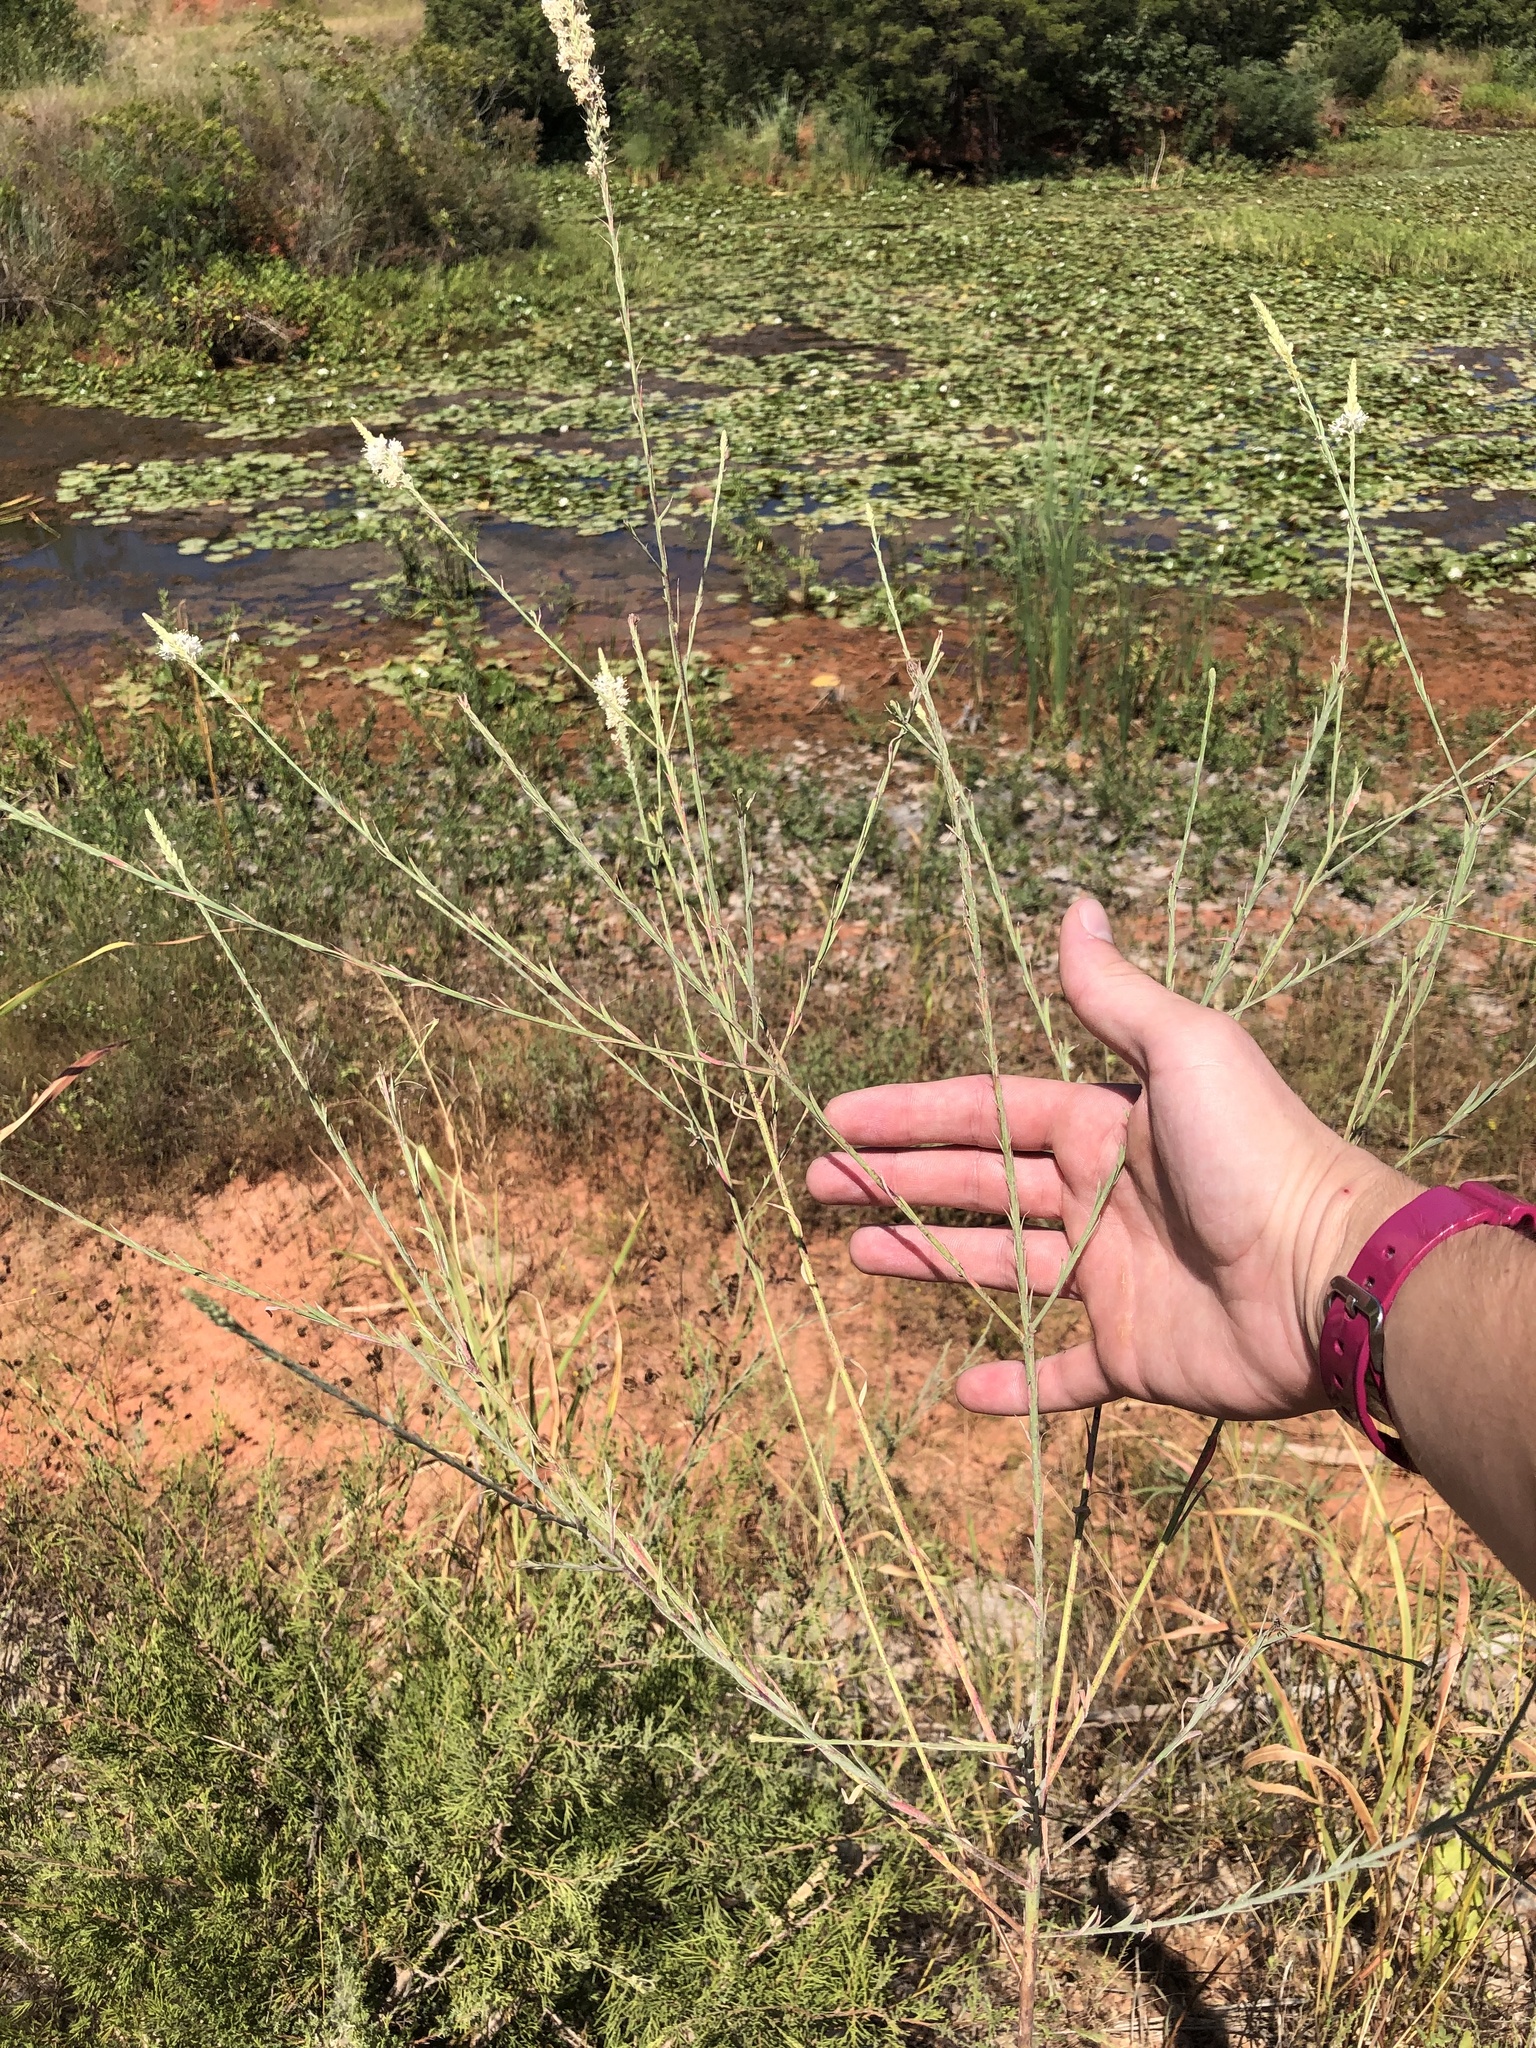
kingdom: Plantae
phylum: Tracheophyta
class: Magnoliopsida
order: Myrtales
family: Onagraceae
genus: Oenothera
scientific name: Oenothera glaucifolia
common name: False gaura
